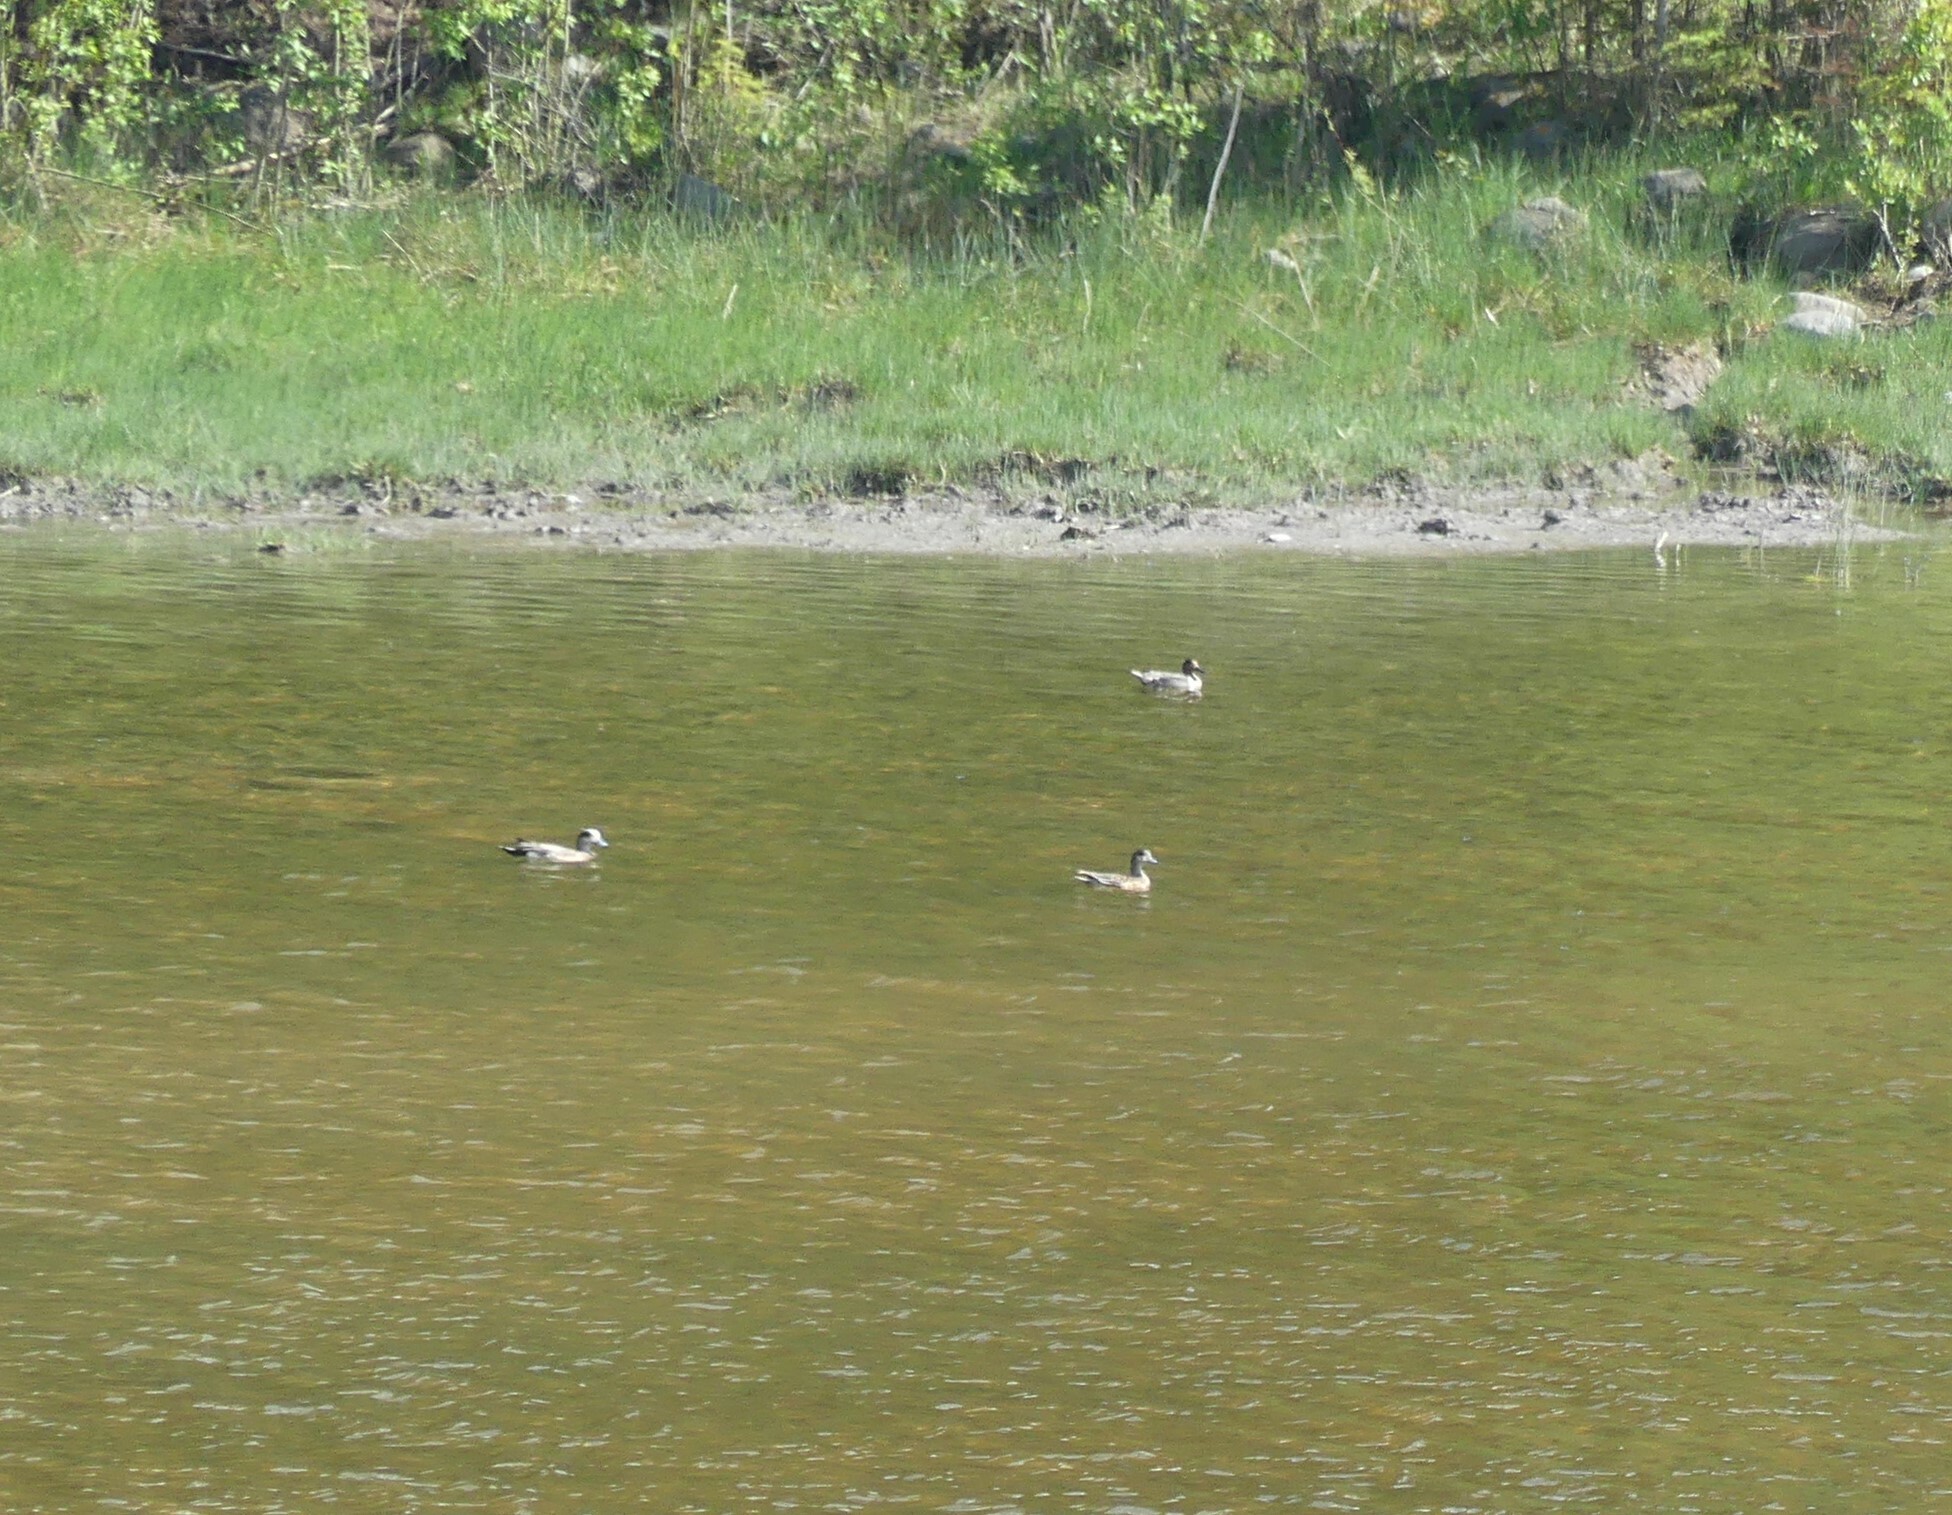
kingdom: Animalia
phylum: Chordata
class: Aves
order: Anseriformes
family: Anatidae
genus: Mareca
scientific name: Mareca americana
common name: American wigeon
